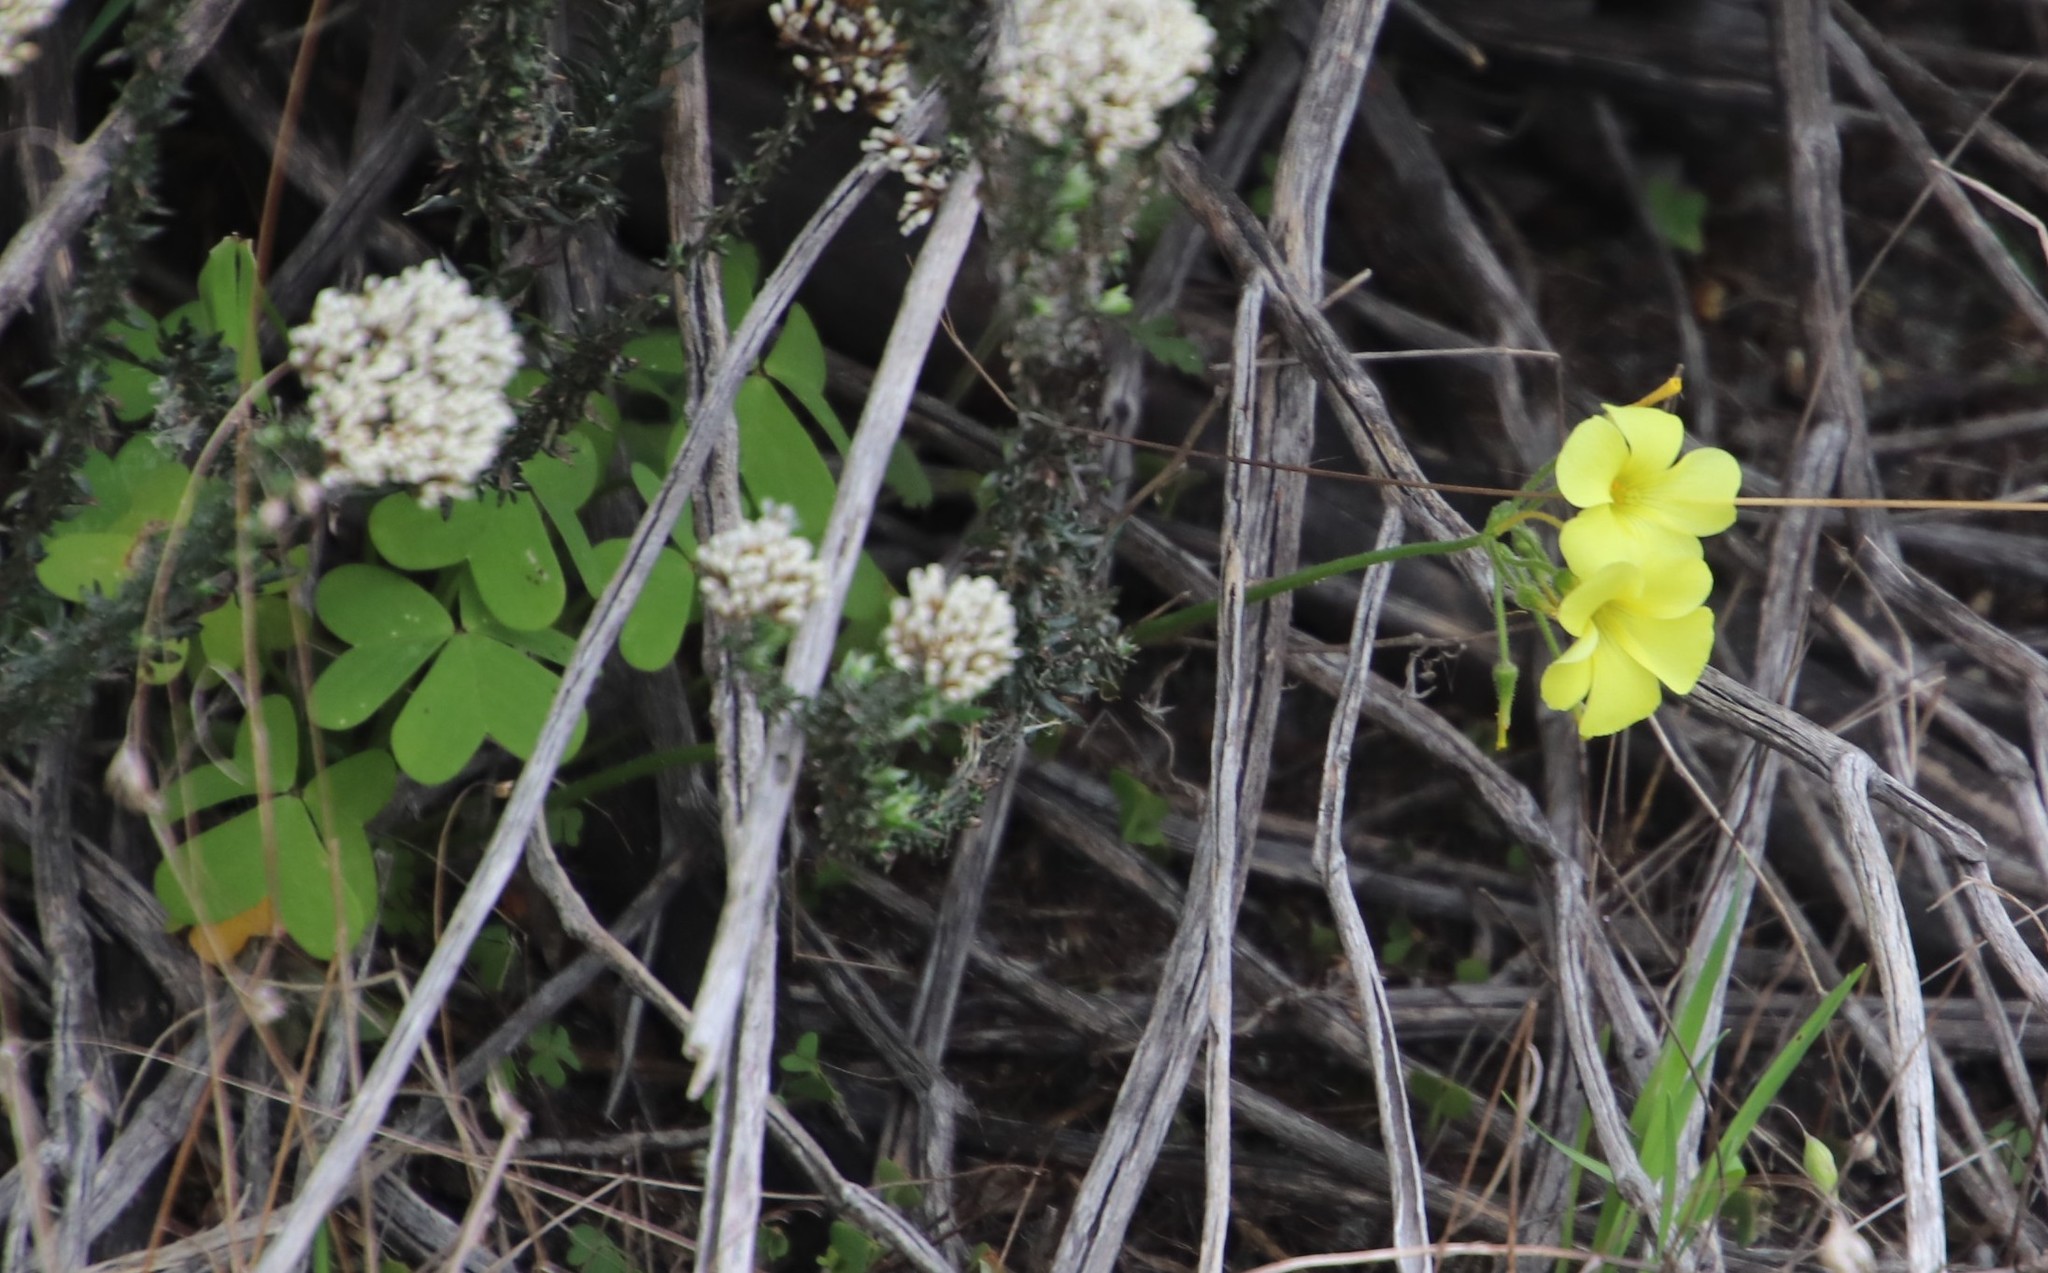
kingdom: Plantae
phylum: Tracheophyta
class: Magnoliopsida
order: Oxalidales
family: Oxalidaceae
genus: Oxalis
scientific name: Oxalis pes-caprae
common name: Bermuda-buttercup
